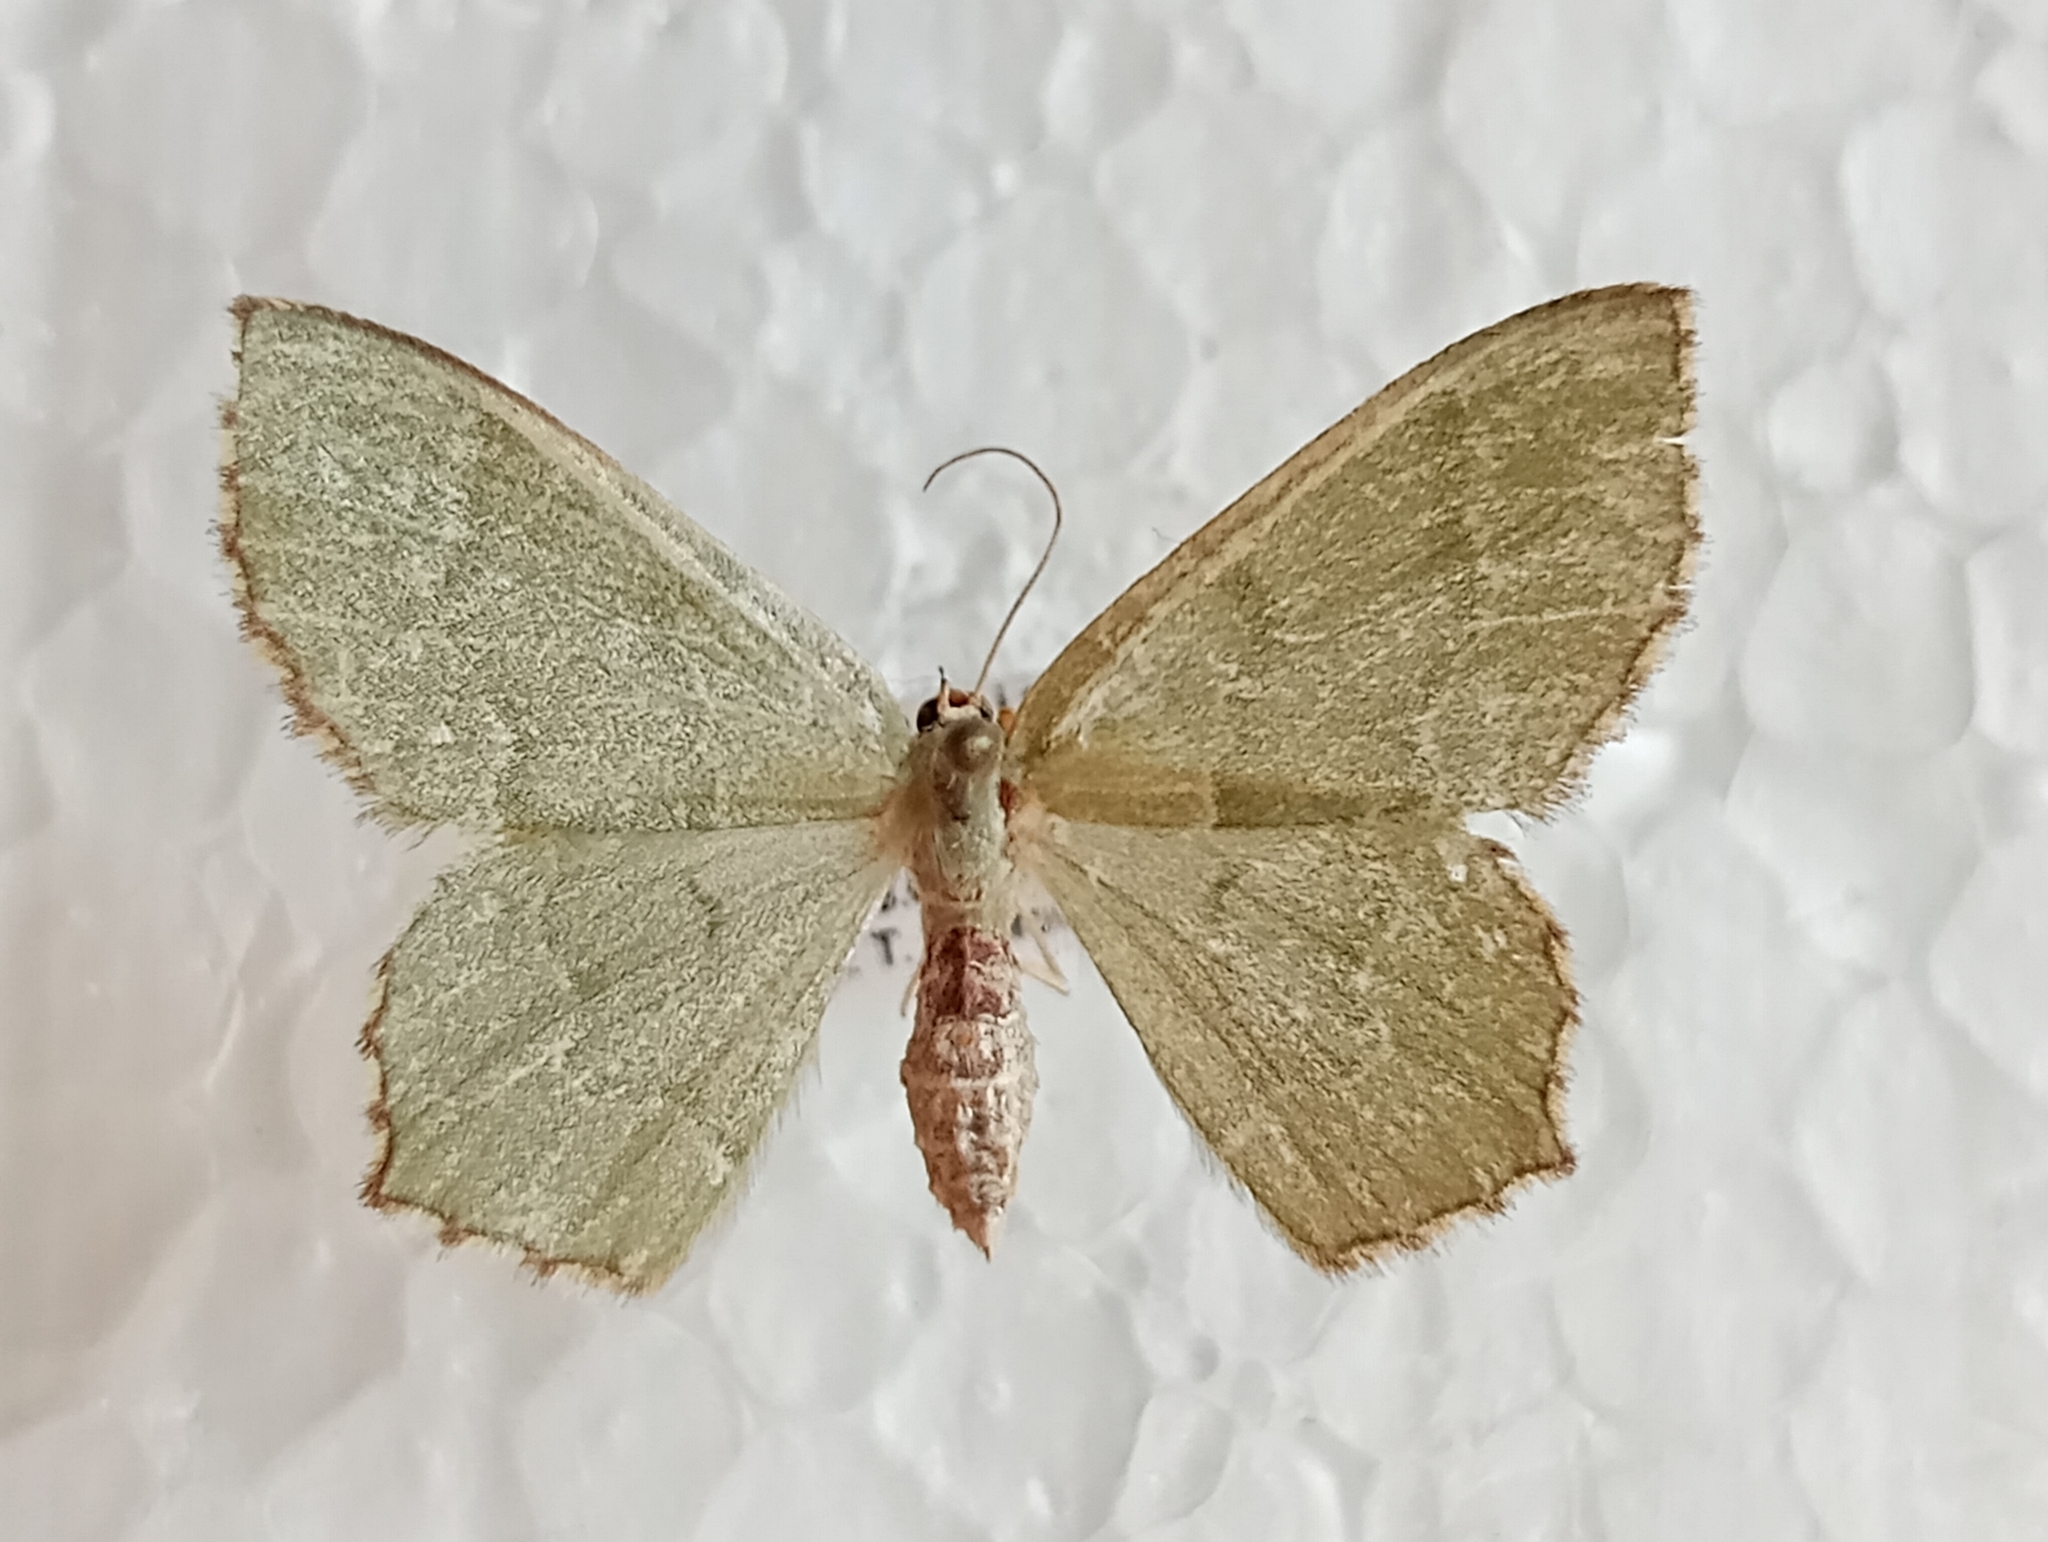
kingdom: Animalia
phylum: Arthropoda
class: Insecta
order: Lepidoptera
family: Geometridae
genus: Hemithea
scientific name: Hemithea aestivaria
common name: Common emerald
